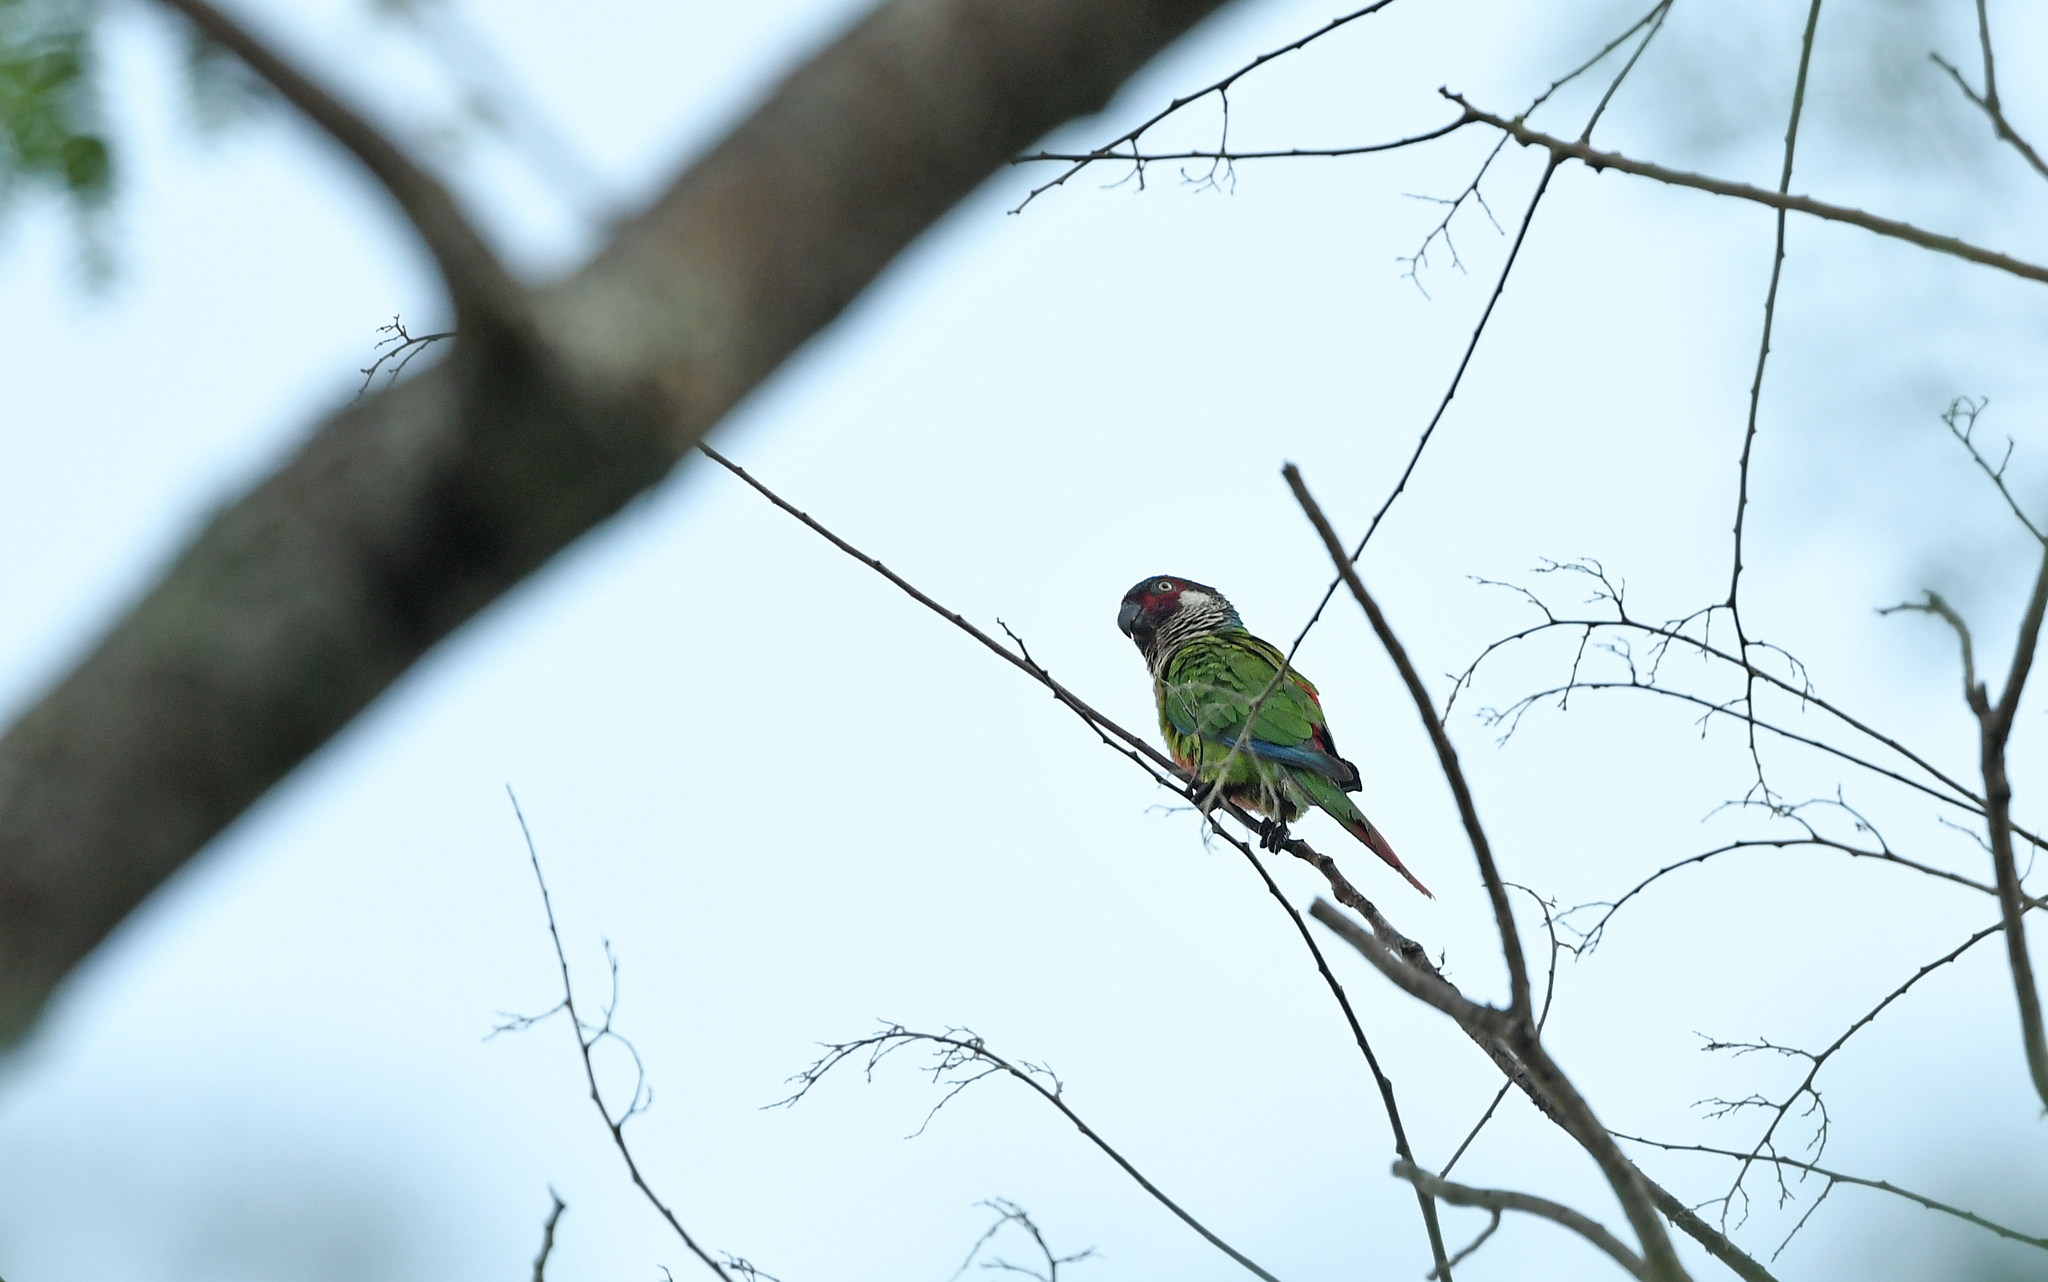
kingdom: Animalia
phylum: Chordata
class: Aves
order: Psittaciformes
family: Psittacidae
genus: Pyrrhura
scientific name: Pyrrhura picta
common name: Painted parakeet
